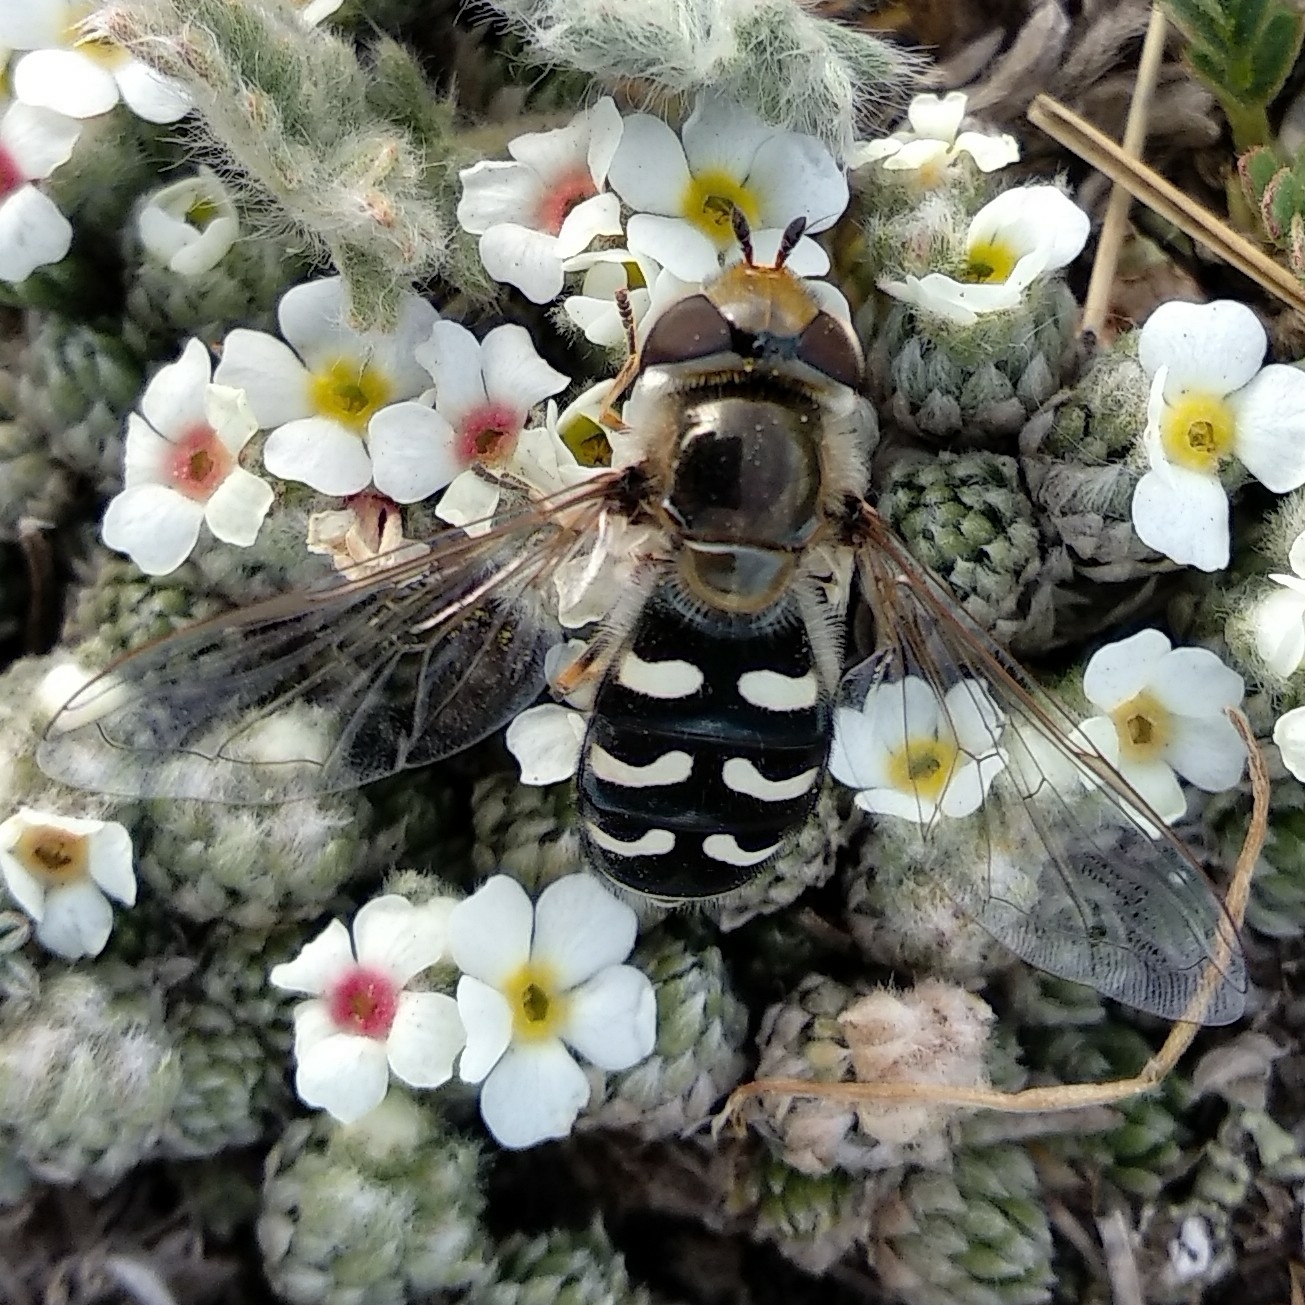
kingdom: Animalia
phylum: Arthropoda
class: Insecta
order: Diptera
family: Syrphidae
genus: Scaeva
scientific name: Scaeva pyrastri
